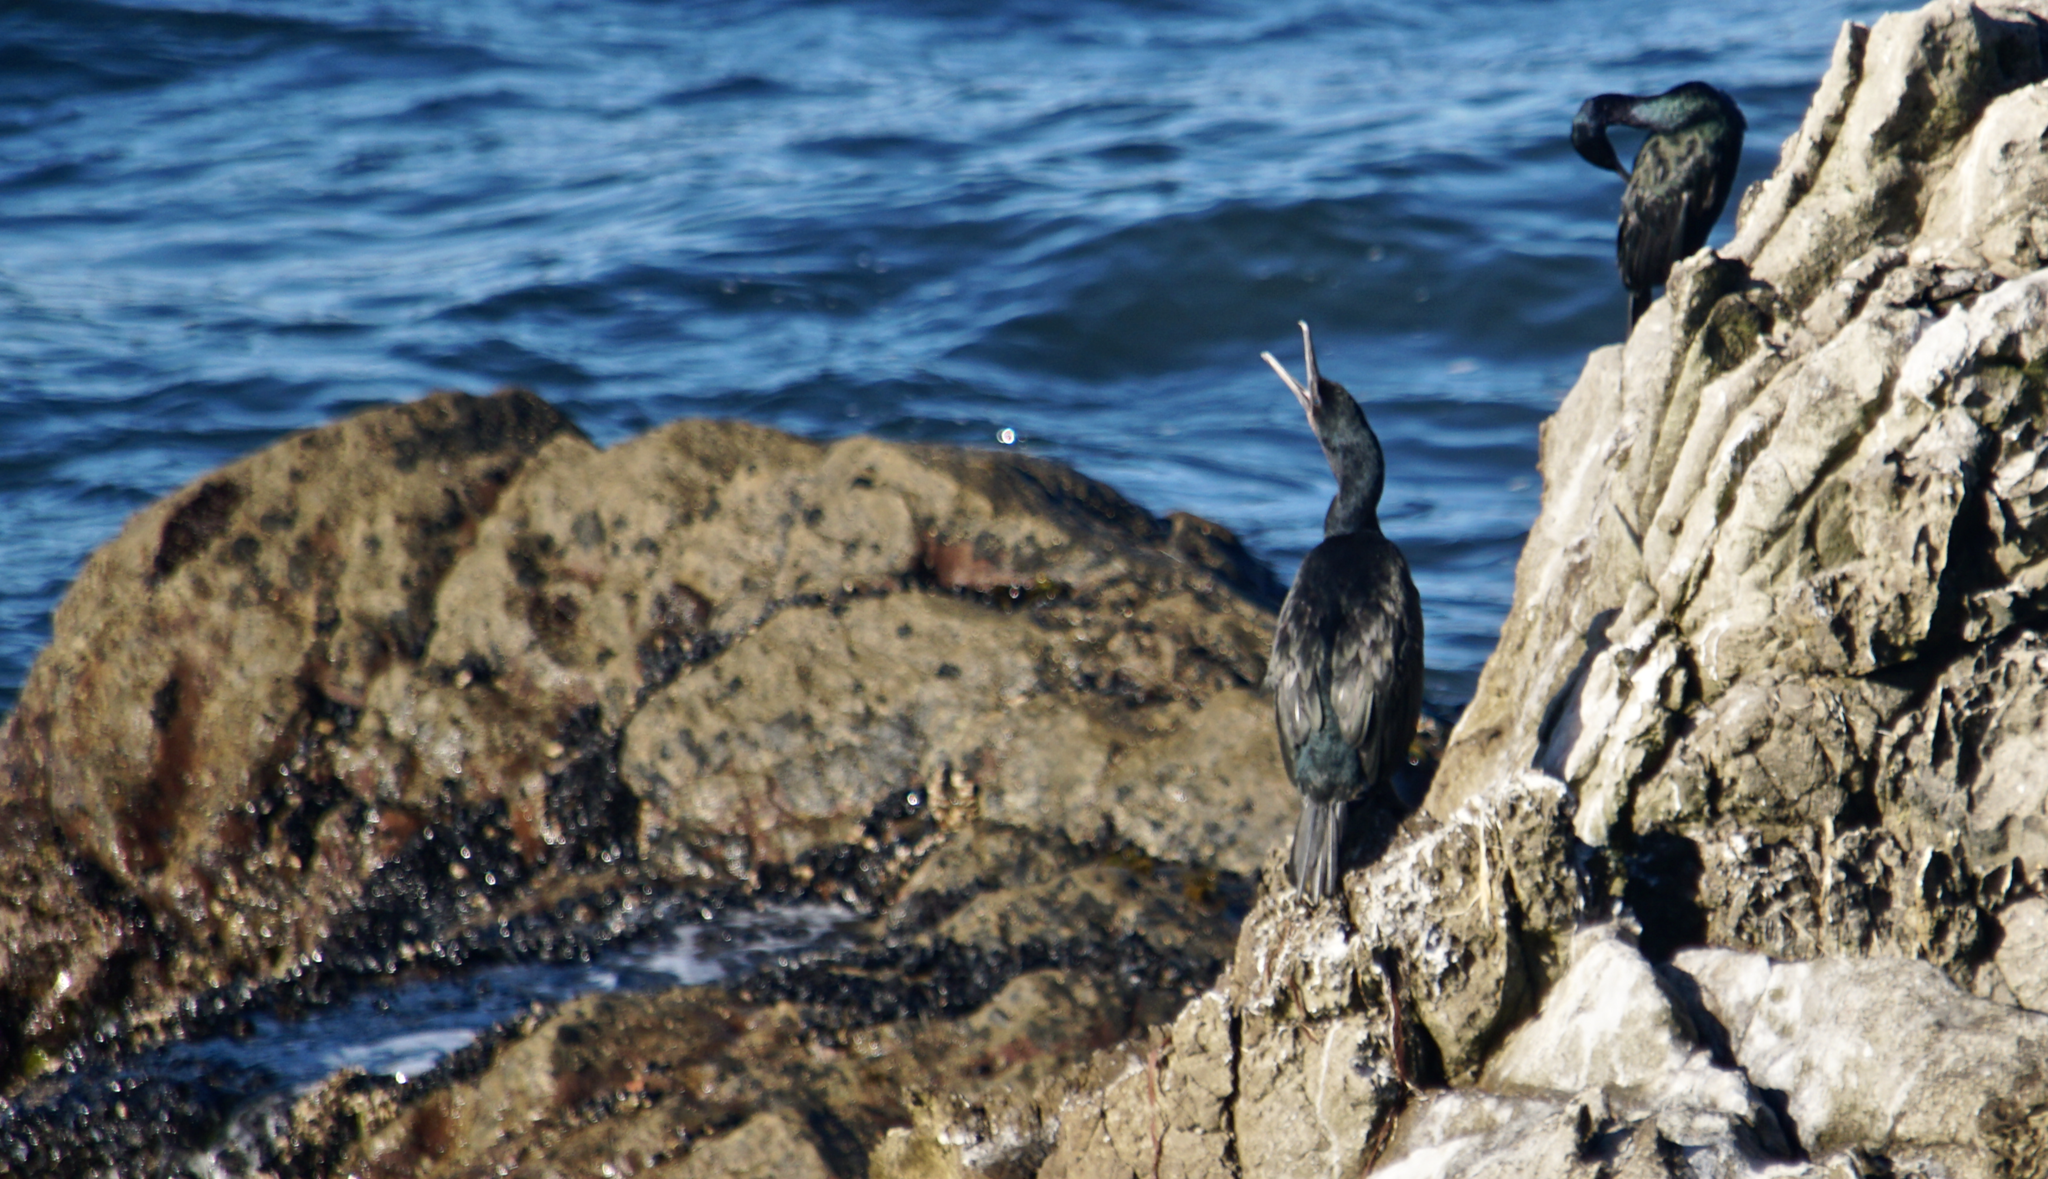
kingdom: Animalia
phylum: Chordata
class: Aves
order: Suliformes
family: Phalacrocoracidae
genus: Urile
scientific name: Urile penicillatus
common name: Brandt's cormorant
